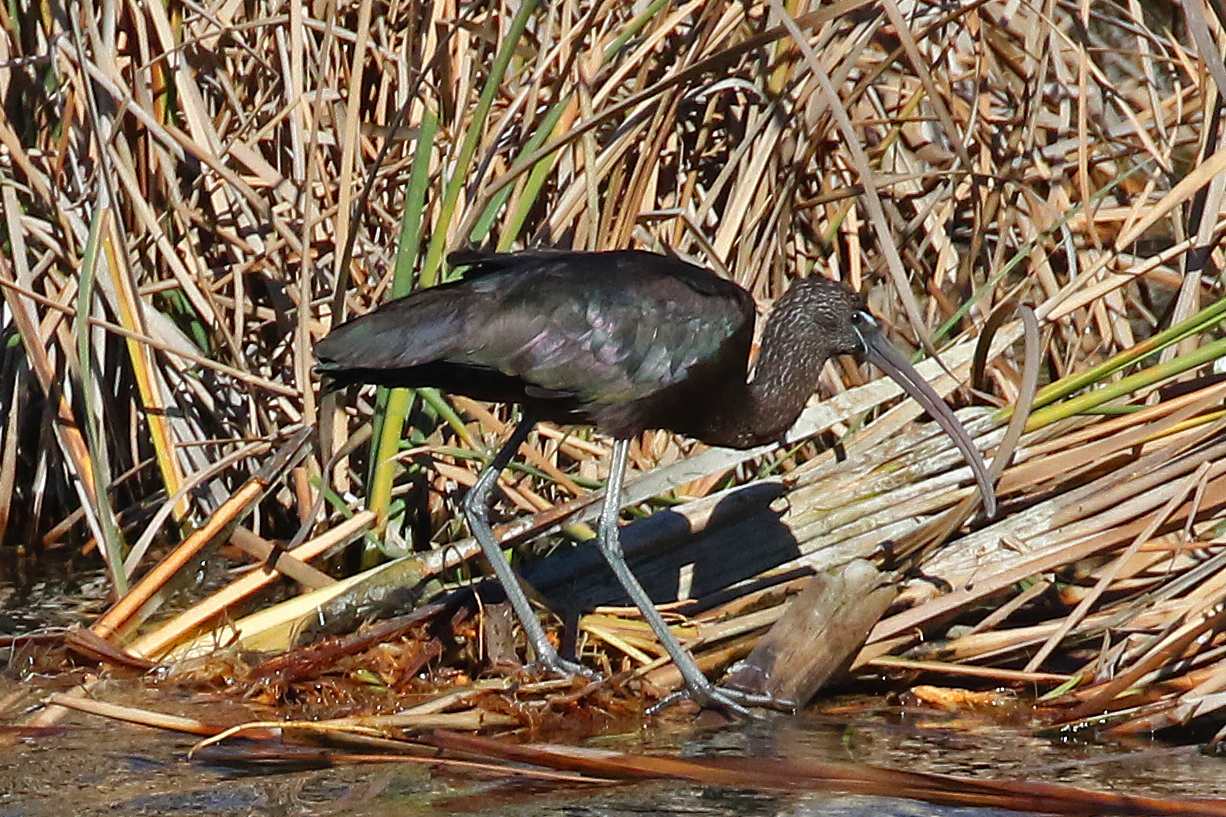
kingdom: Animalia
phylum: Chordata
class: Aves
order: Pelecaniformes
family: Threskiornithidae
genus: Plegadis
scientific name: Plegadis falcinellus
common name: Glossy ibis
